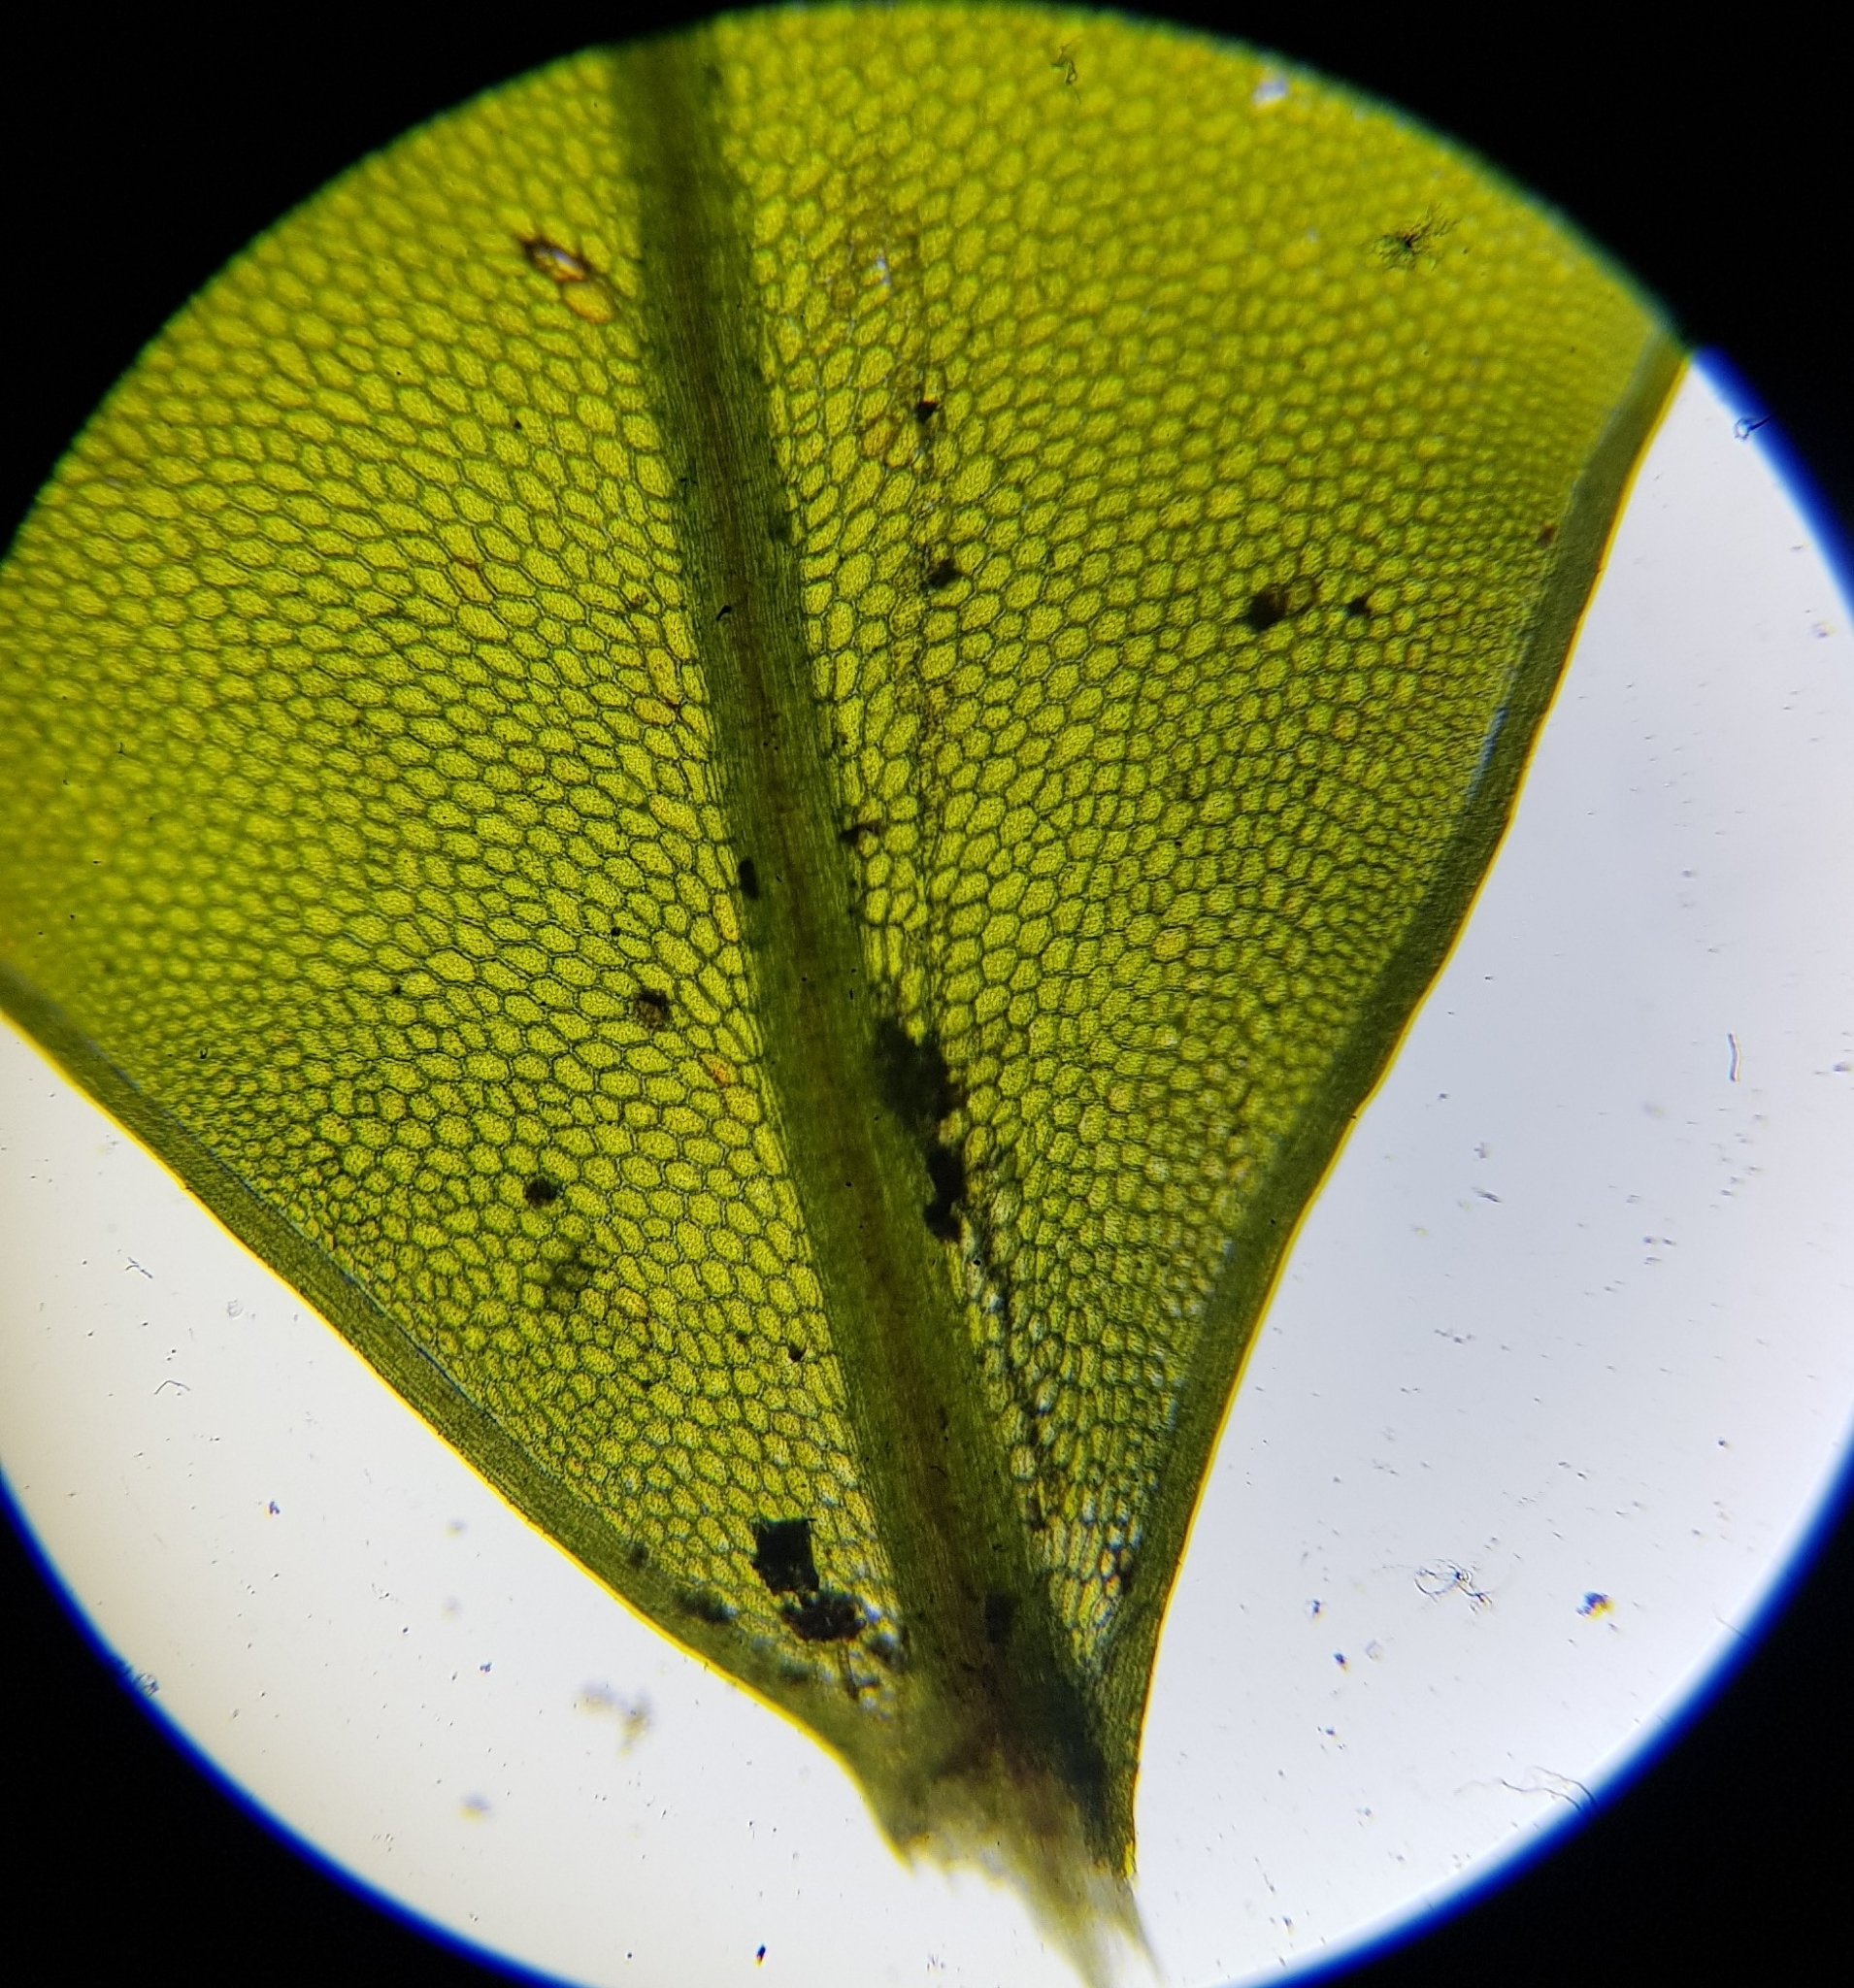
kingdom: Plantae
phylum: Bryophyta
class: Bryopsida
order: Bryales
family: Mniaceae
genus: Rhizomnium
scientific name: Rhizomnium punctatum
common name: Dotted leafy moss
